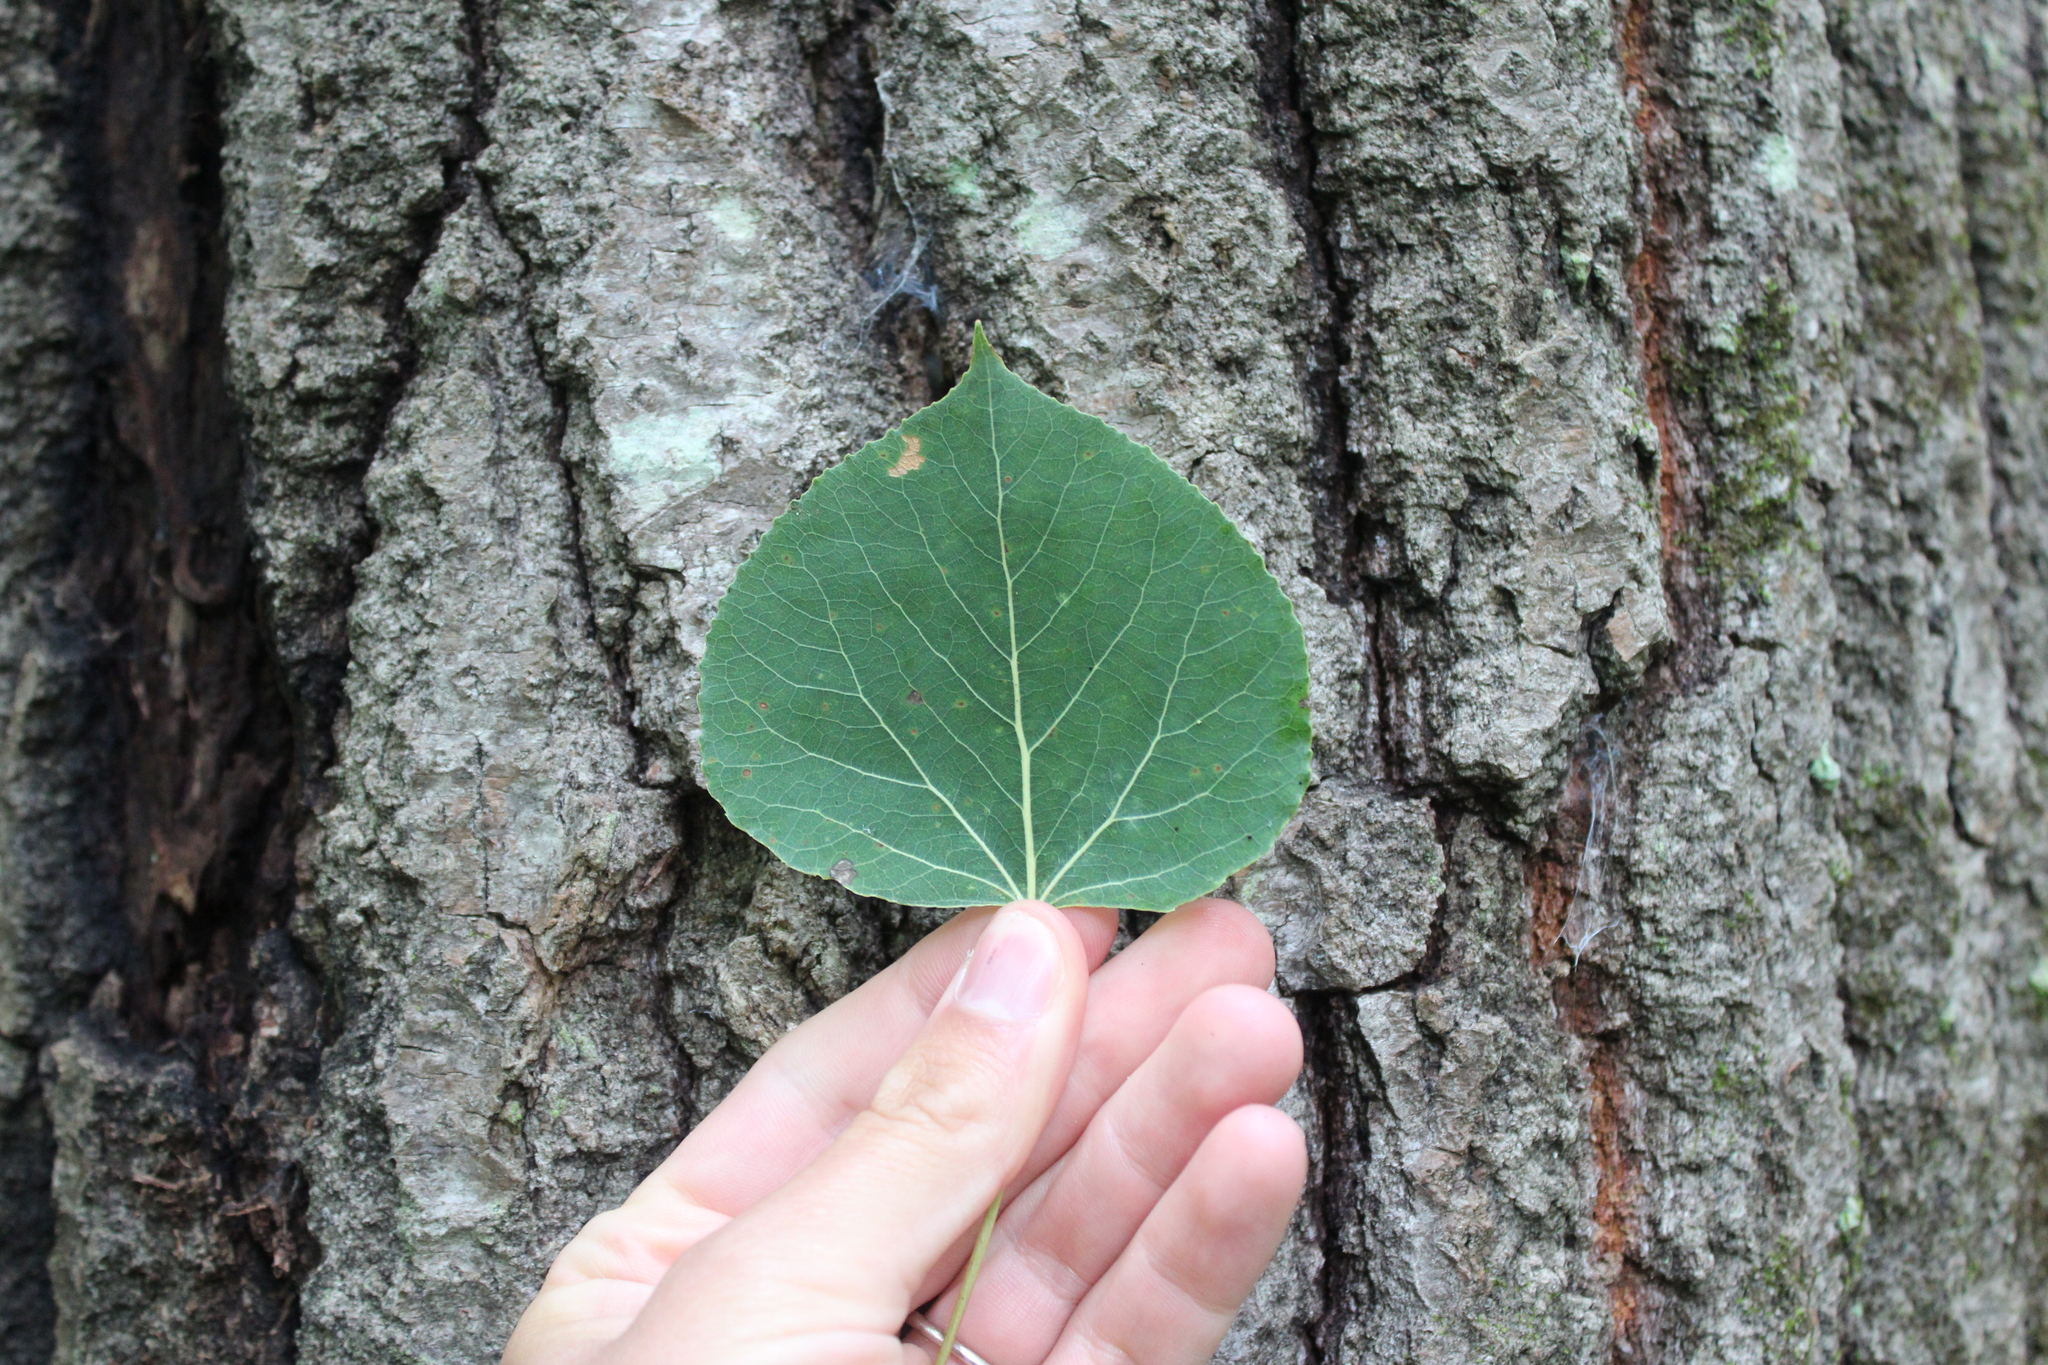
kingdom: Plantae
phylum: Tracheophyta
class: Magnoliopsida
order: Malpighiales
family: Salicaceae
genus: Populus
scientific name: Populus tremuloides
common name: Quaking aspen
